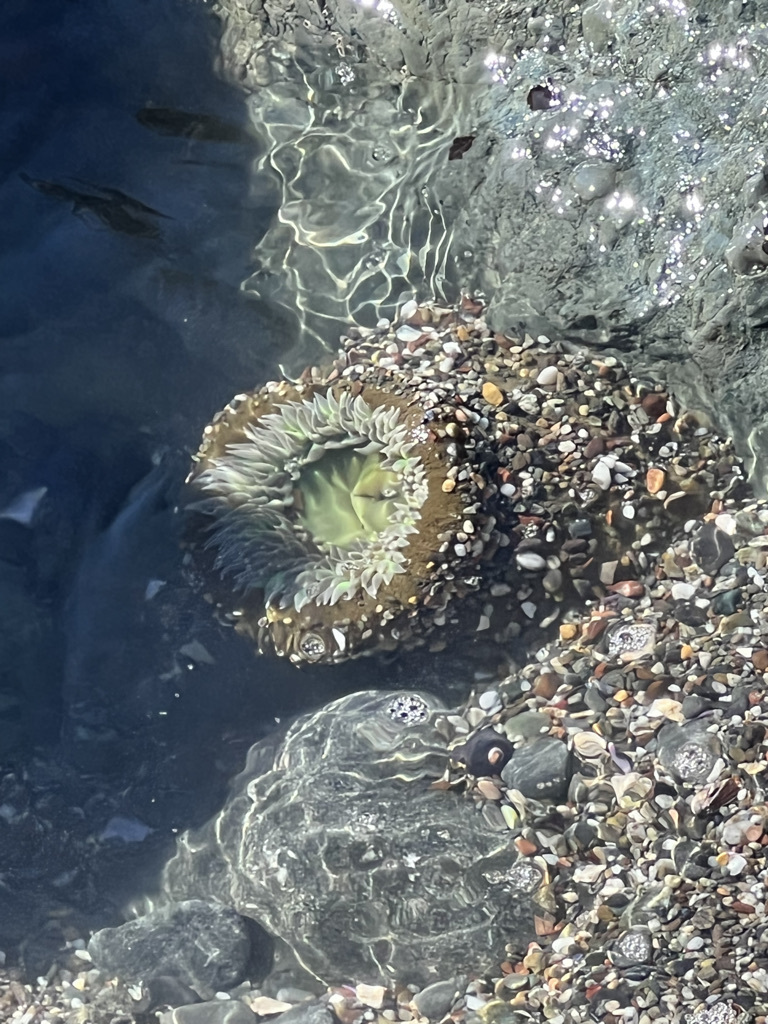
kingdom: Animalia
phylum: Cnidaria
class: Anthozoa
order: Actiniaria
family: Actiniidae
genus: Anthopleura
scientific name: Anthopleura xanthogrammica
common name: Giant green anemone
